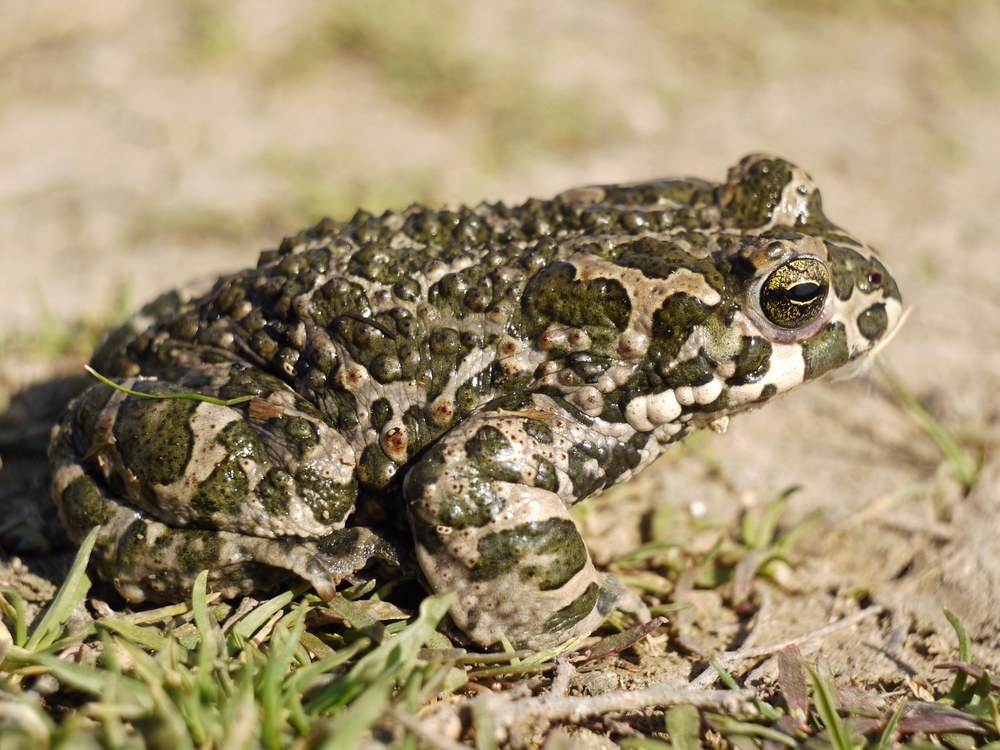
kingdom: Animalia
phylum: Chordata
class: Amphibia
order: Anura
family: Bufonidae
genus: Bufotes
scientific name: Bufotes viridis
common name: European green toad
